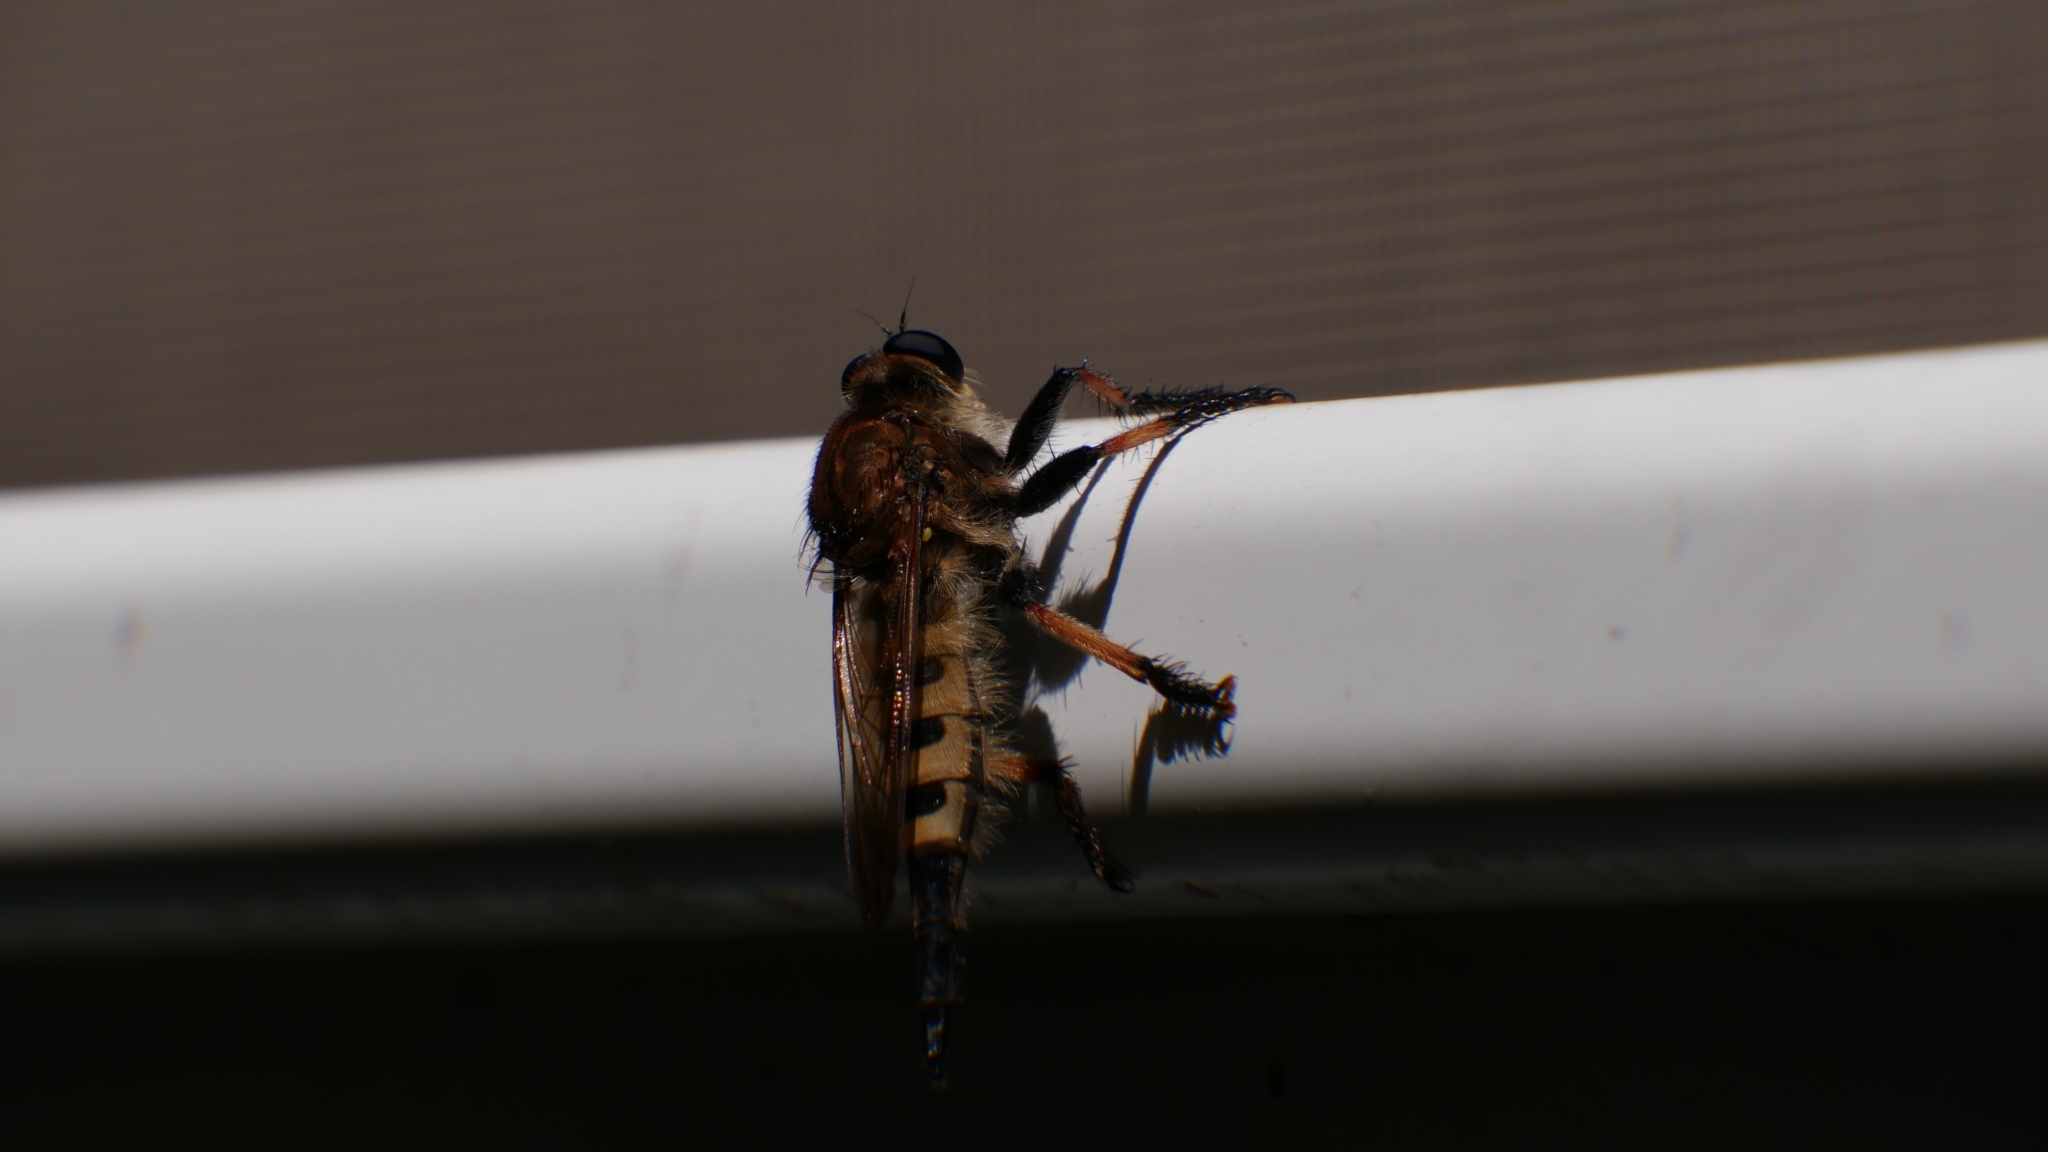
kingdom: Animalia
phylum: Arthropoda
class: Insecta
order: Diptera
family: Asilidae
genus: Promachus
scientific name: Promachus rufipes
